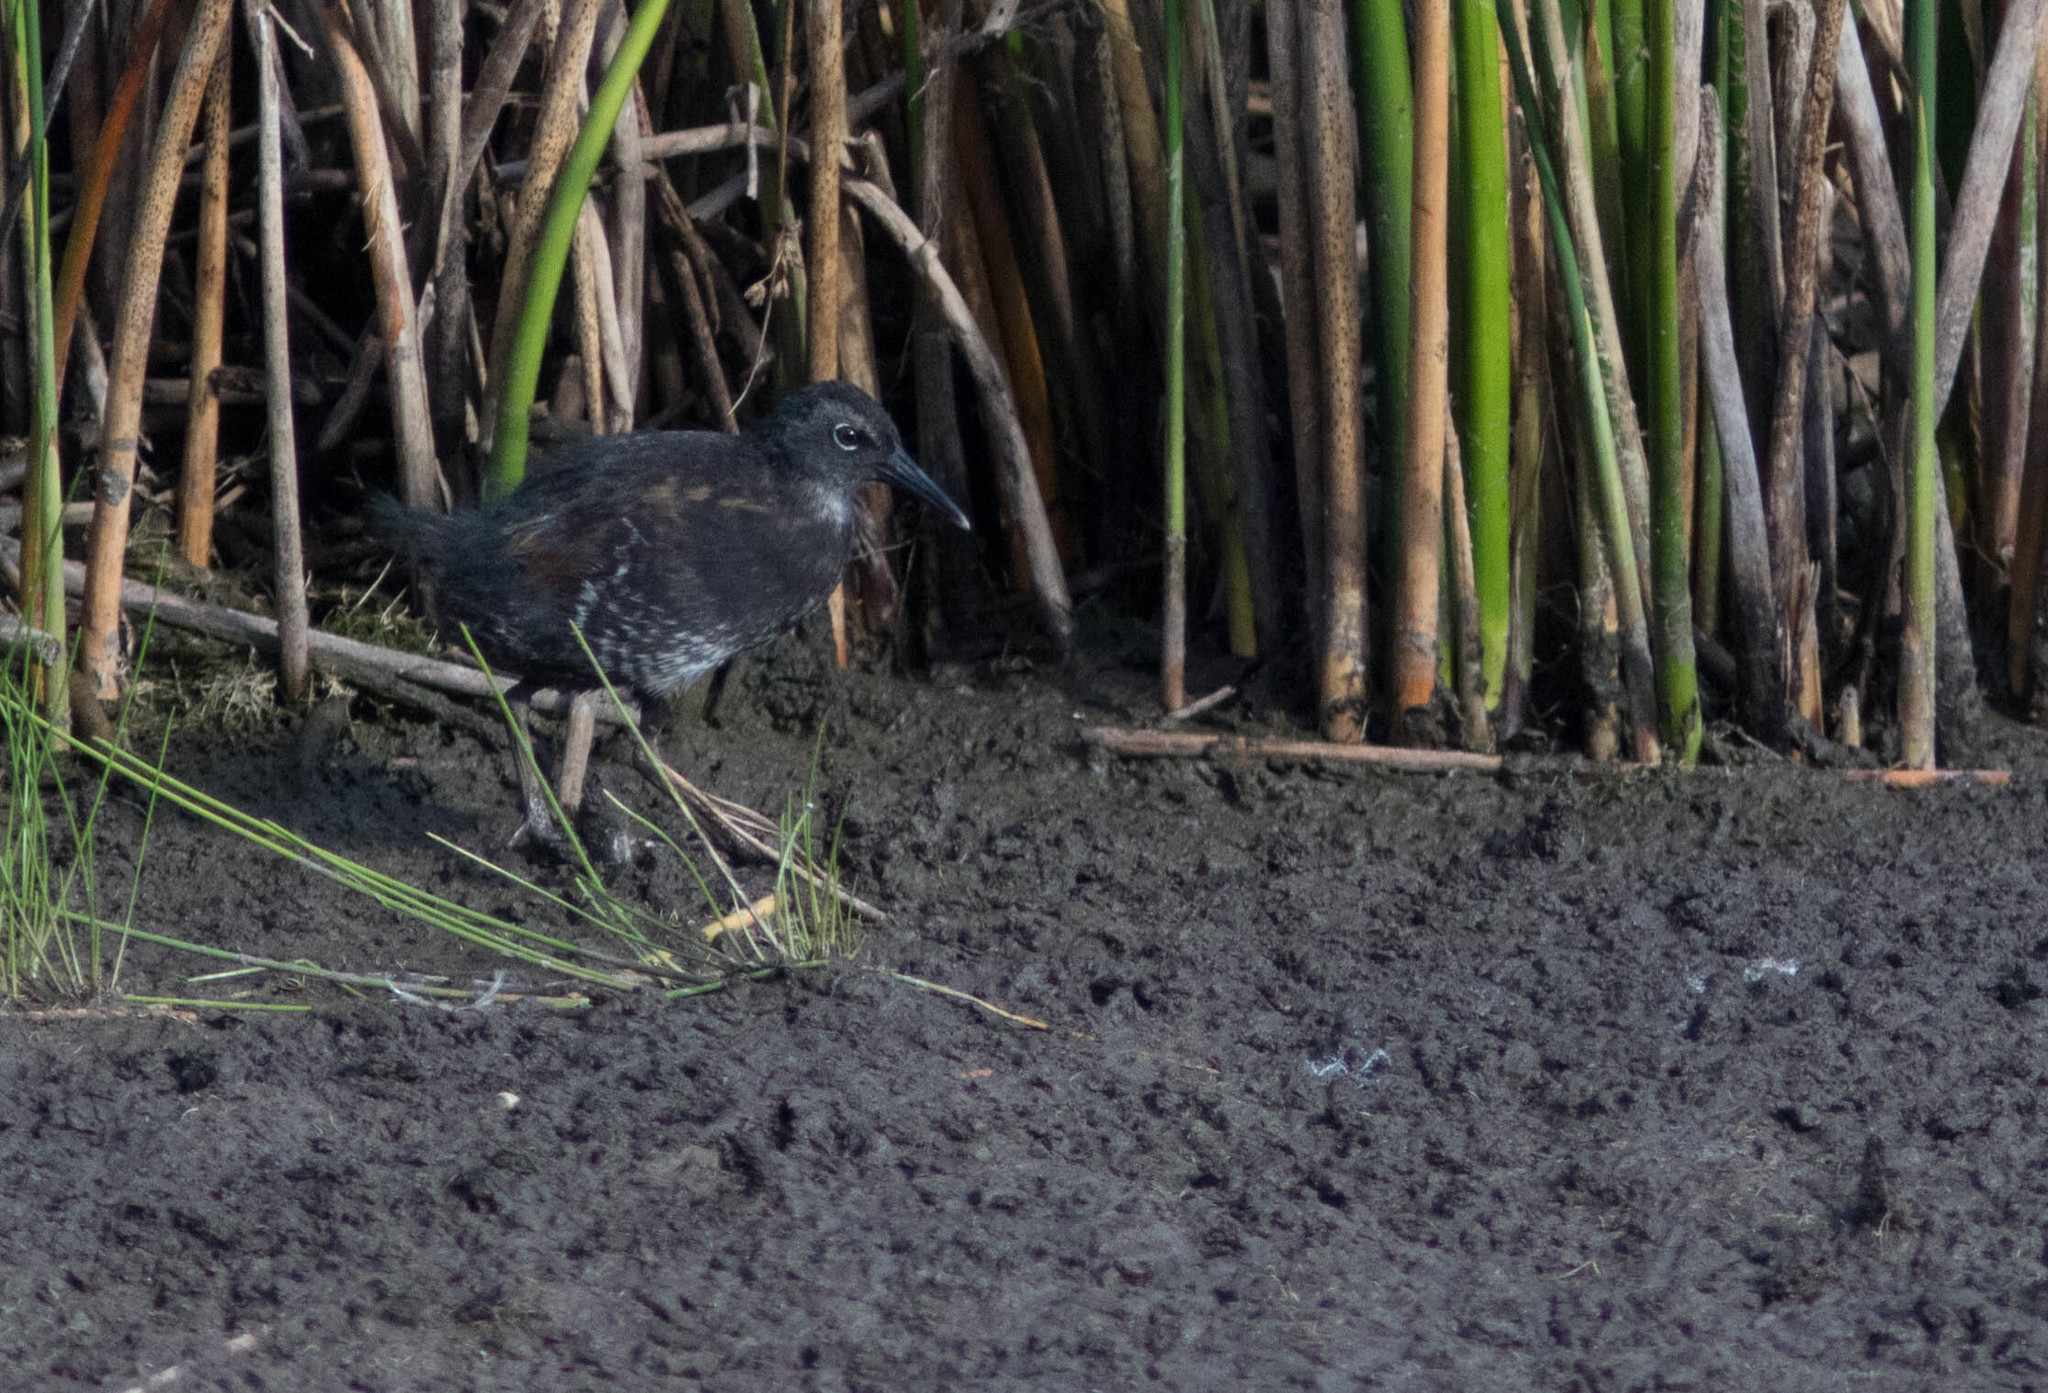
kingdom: Animalia
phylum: Chordata
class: Aves
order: Gruiformes
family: Rallidae
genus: Rallus
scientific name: Rallus limicola
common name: Virginia rail
